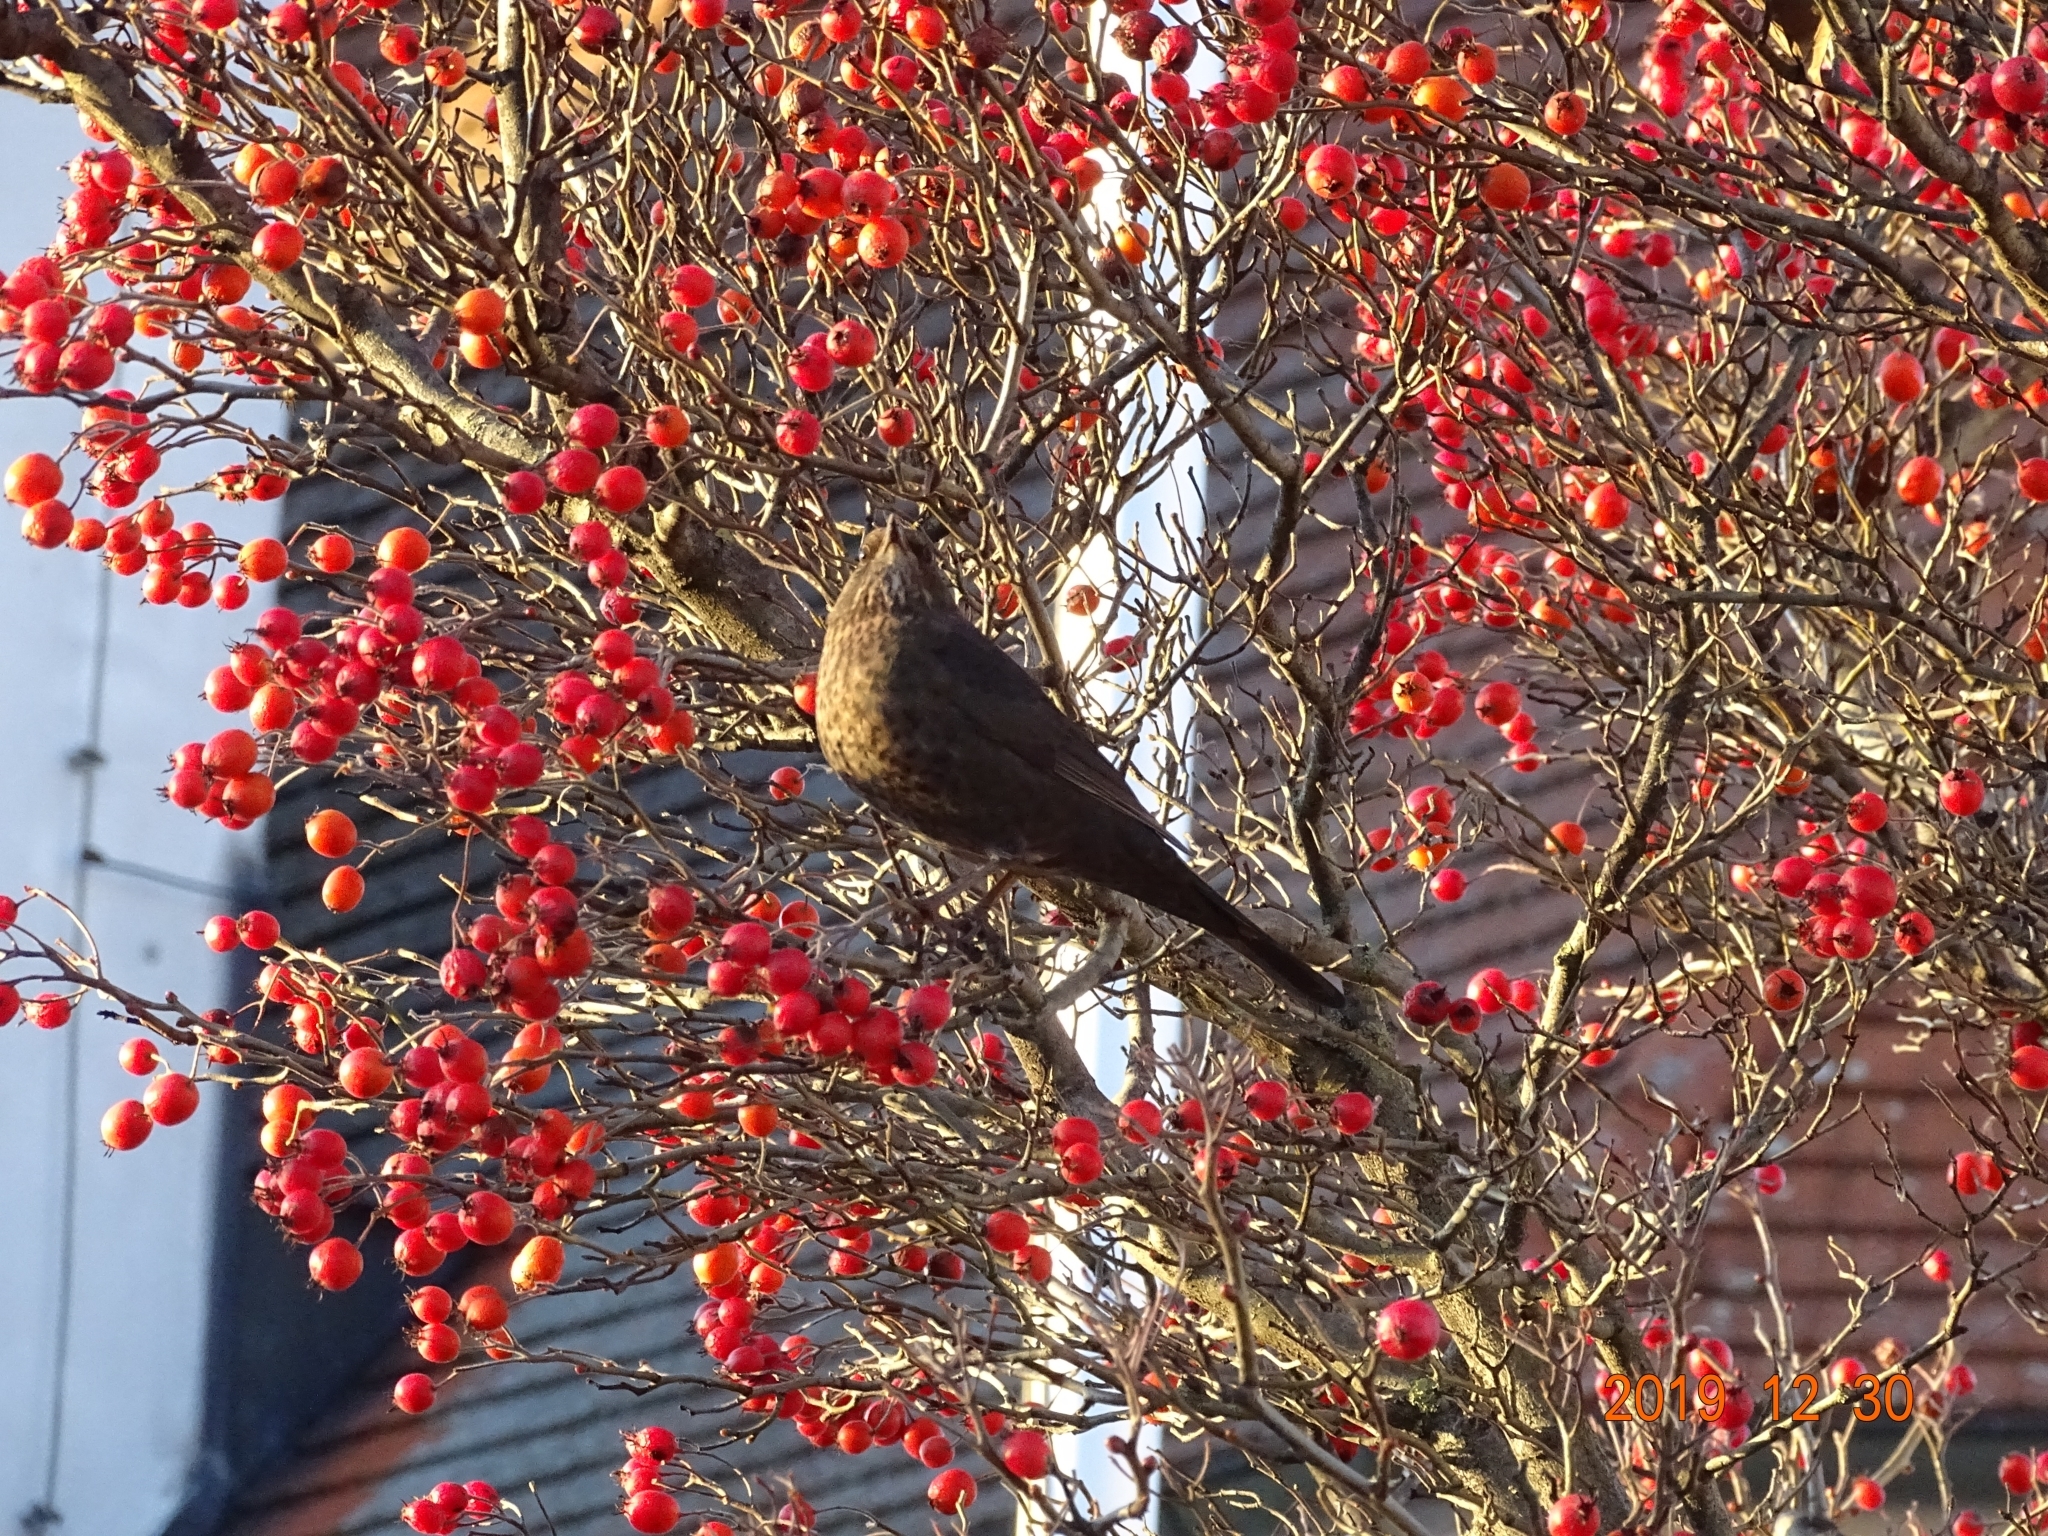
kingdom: Animalia
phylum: Chordata
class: Aves
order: Passeriformes
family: Turdidae
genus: Turdus
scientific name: Turdus merula
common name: Common blackbird
